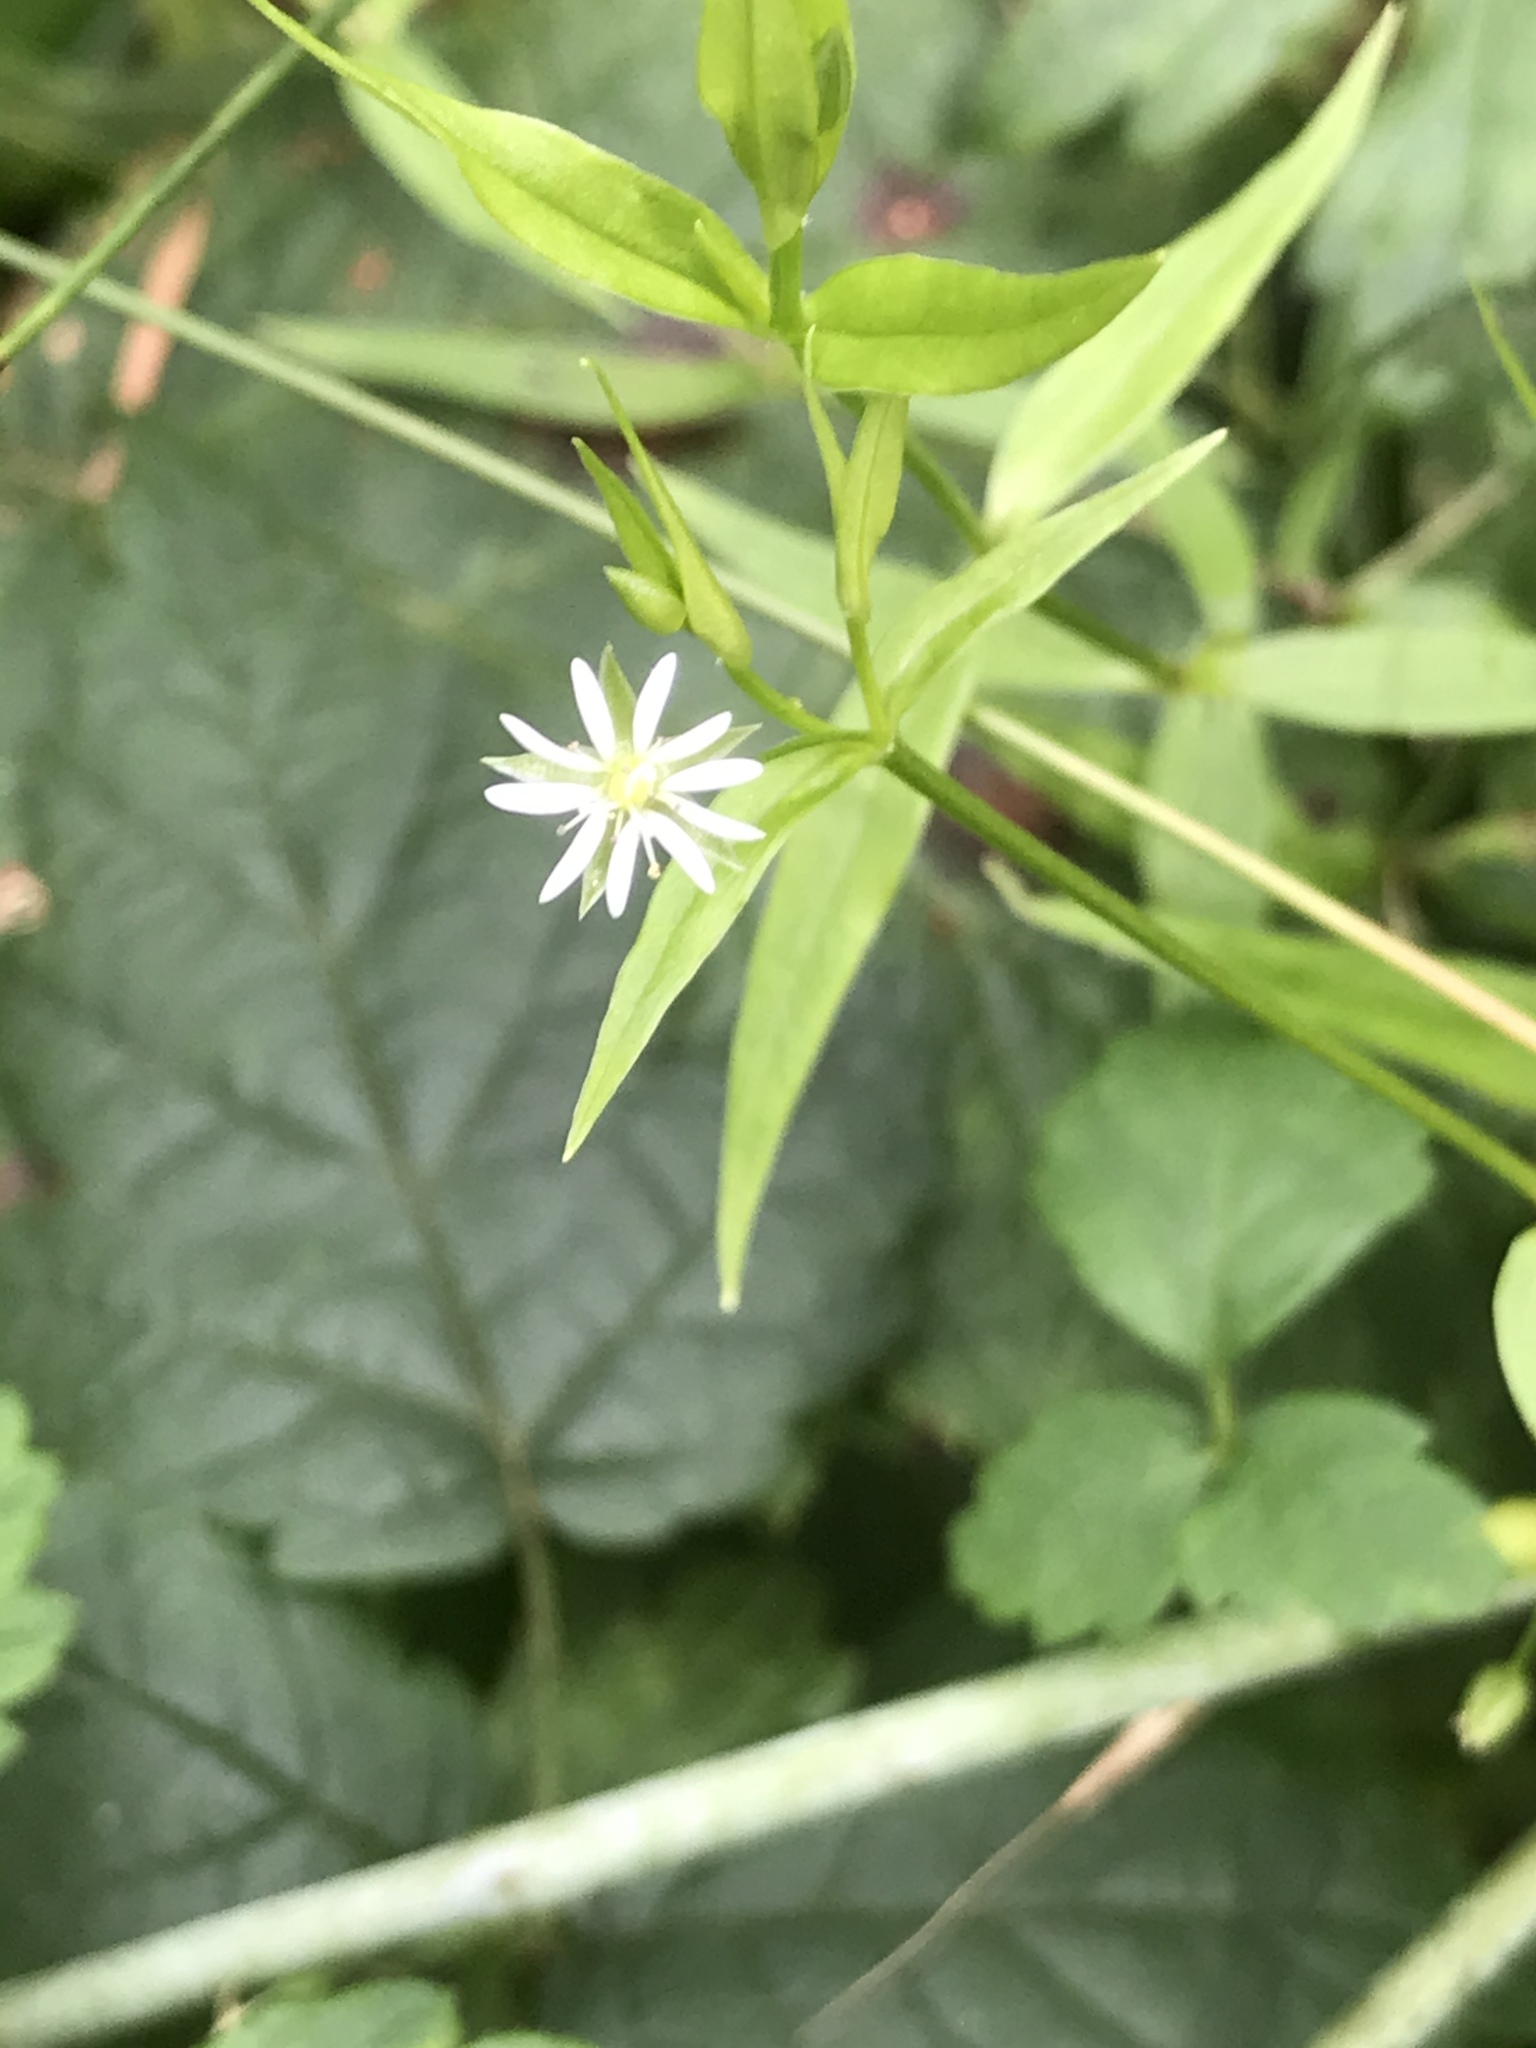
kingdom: Plantae
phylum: Tracheophyta
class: Magnoliopsida
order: Caryophyllales
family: Caryophyllaceae
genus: Stellaria
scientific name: Stellaria calycantha
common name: Northern starwort
